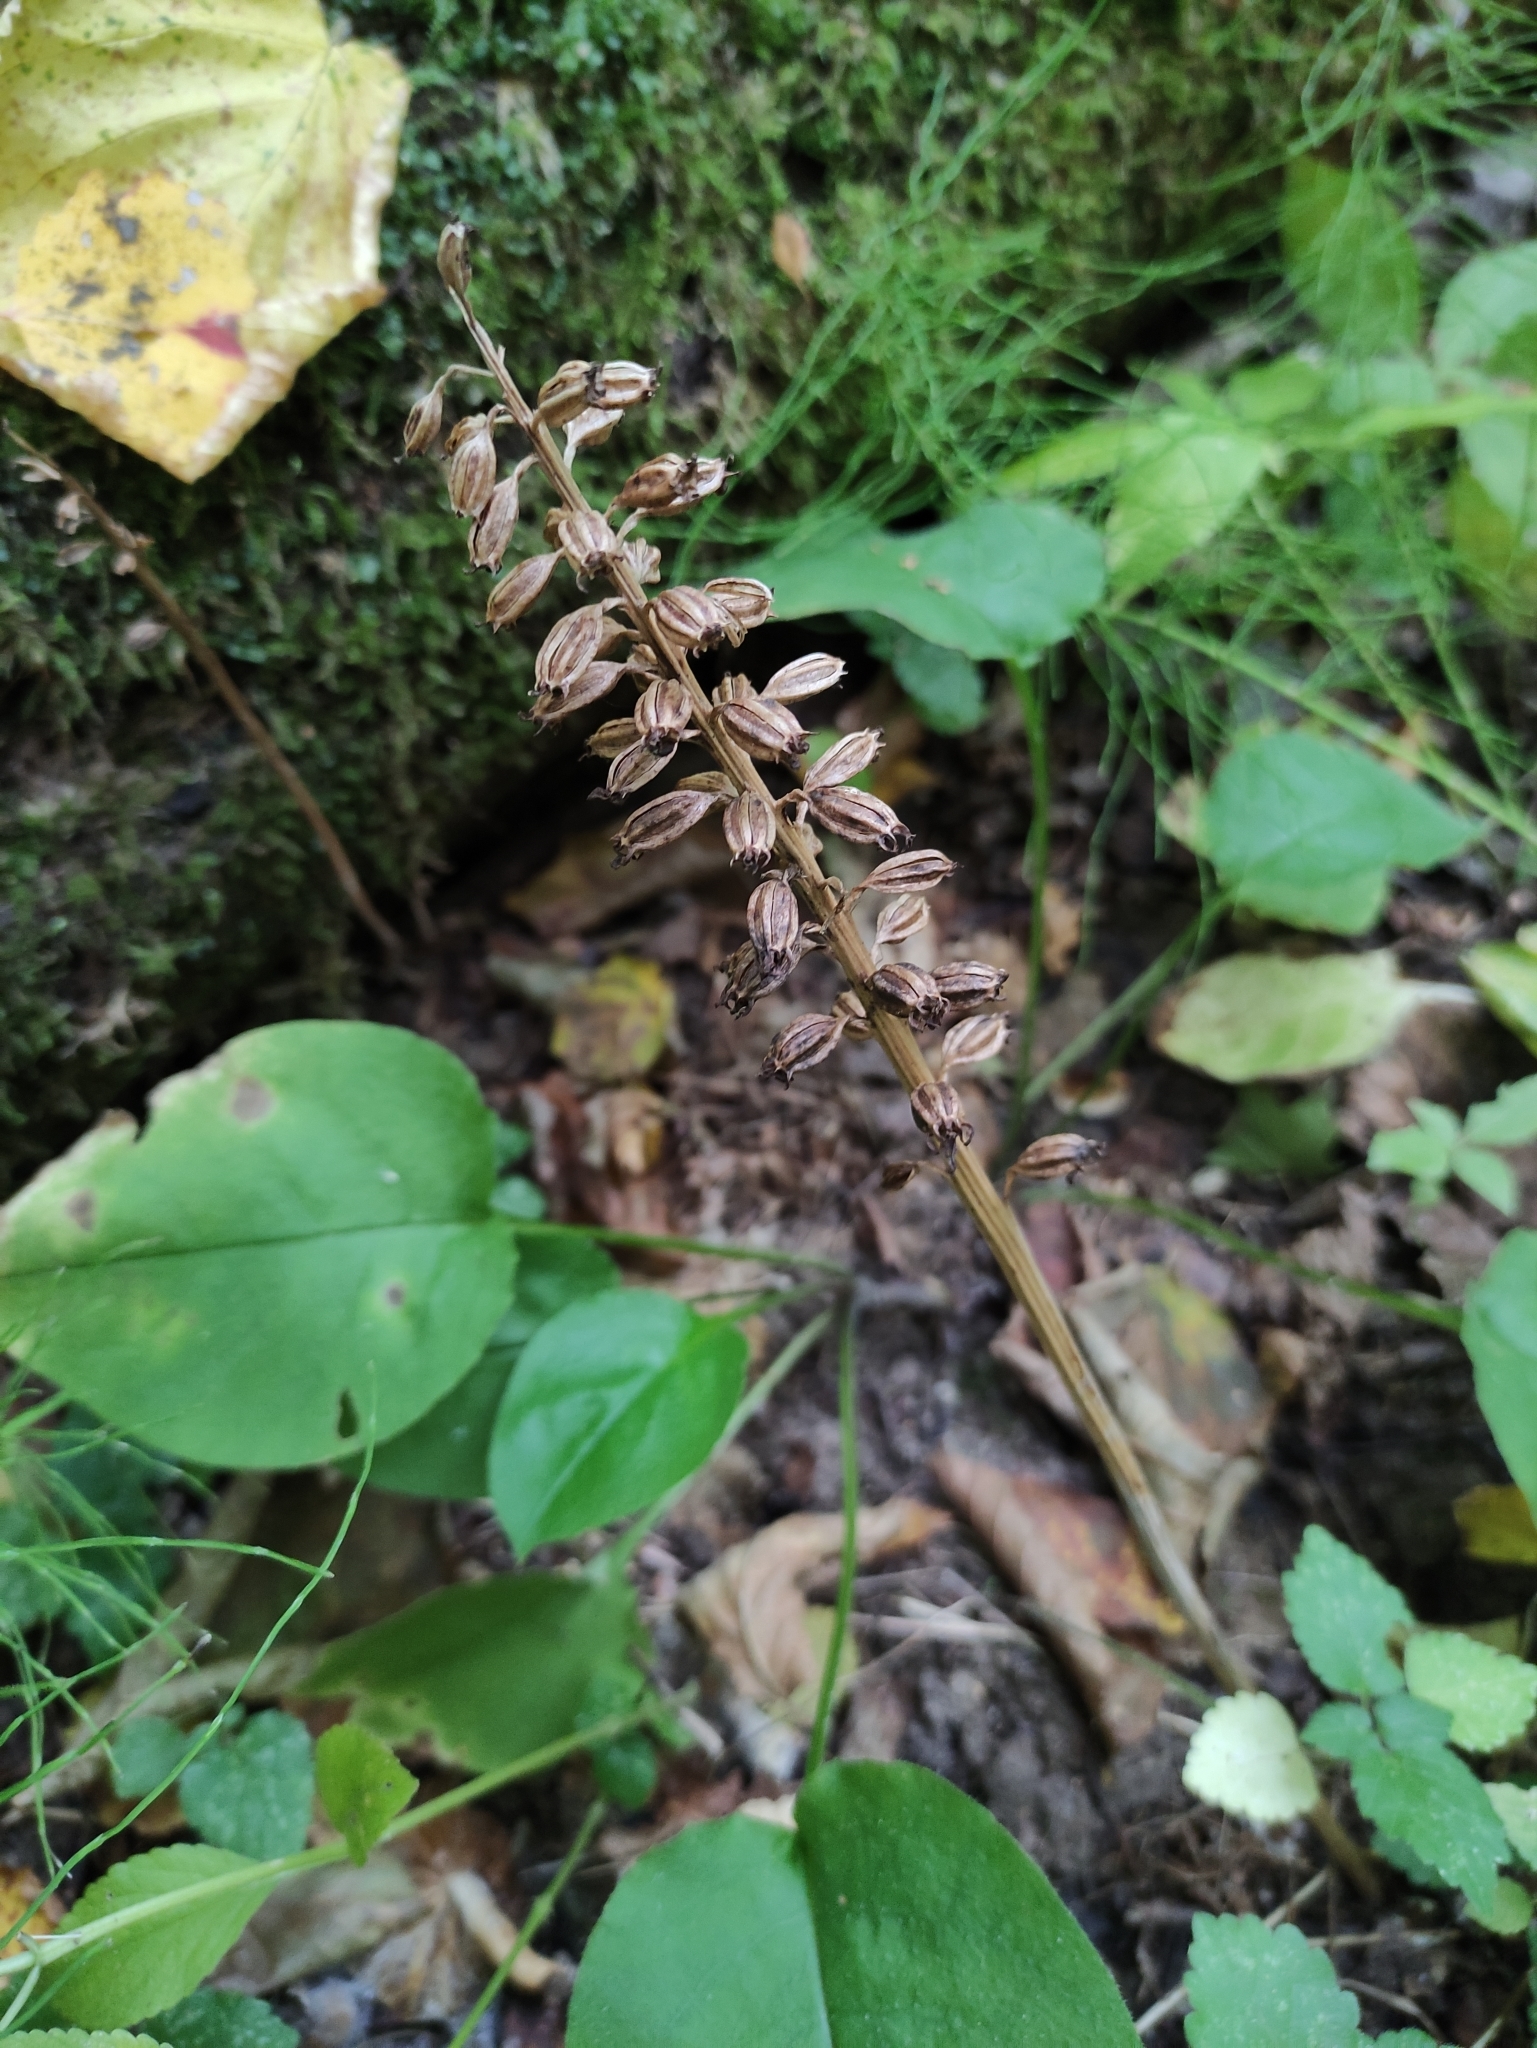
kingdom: Plantae
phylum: Tracheophyta
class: Liliopsida
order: Asparagales
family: Orchidaceae
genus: Neottia
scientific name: Neottia nidus-avis
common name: Bird's-nest orchid
